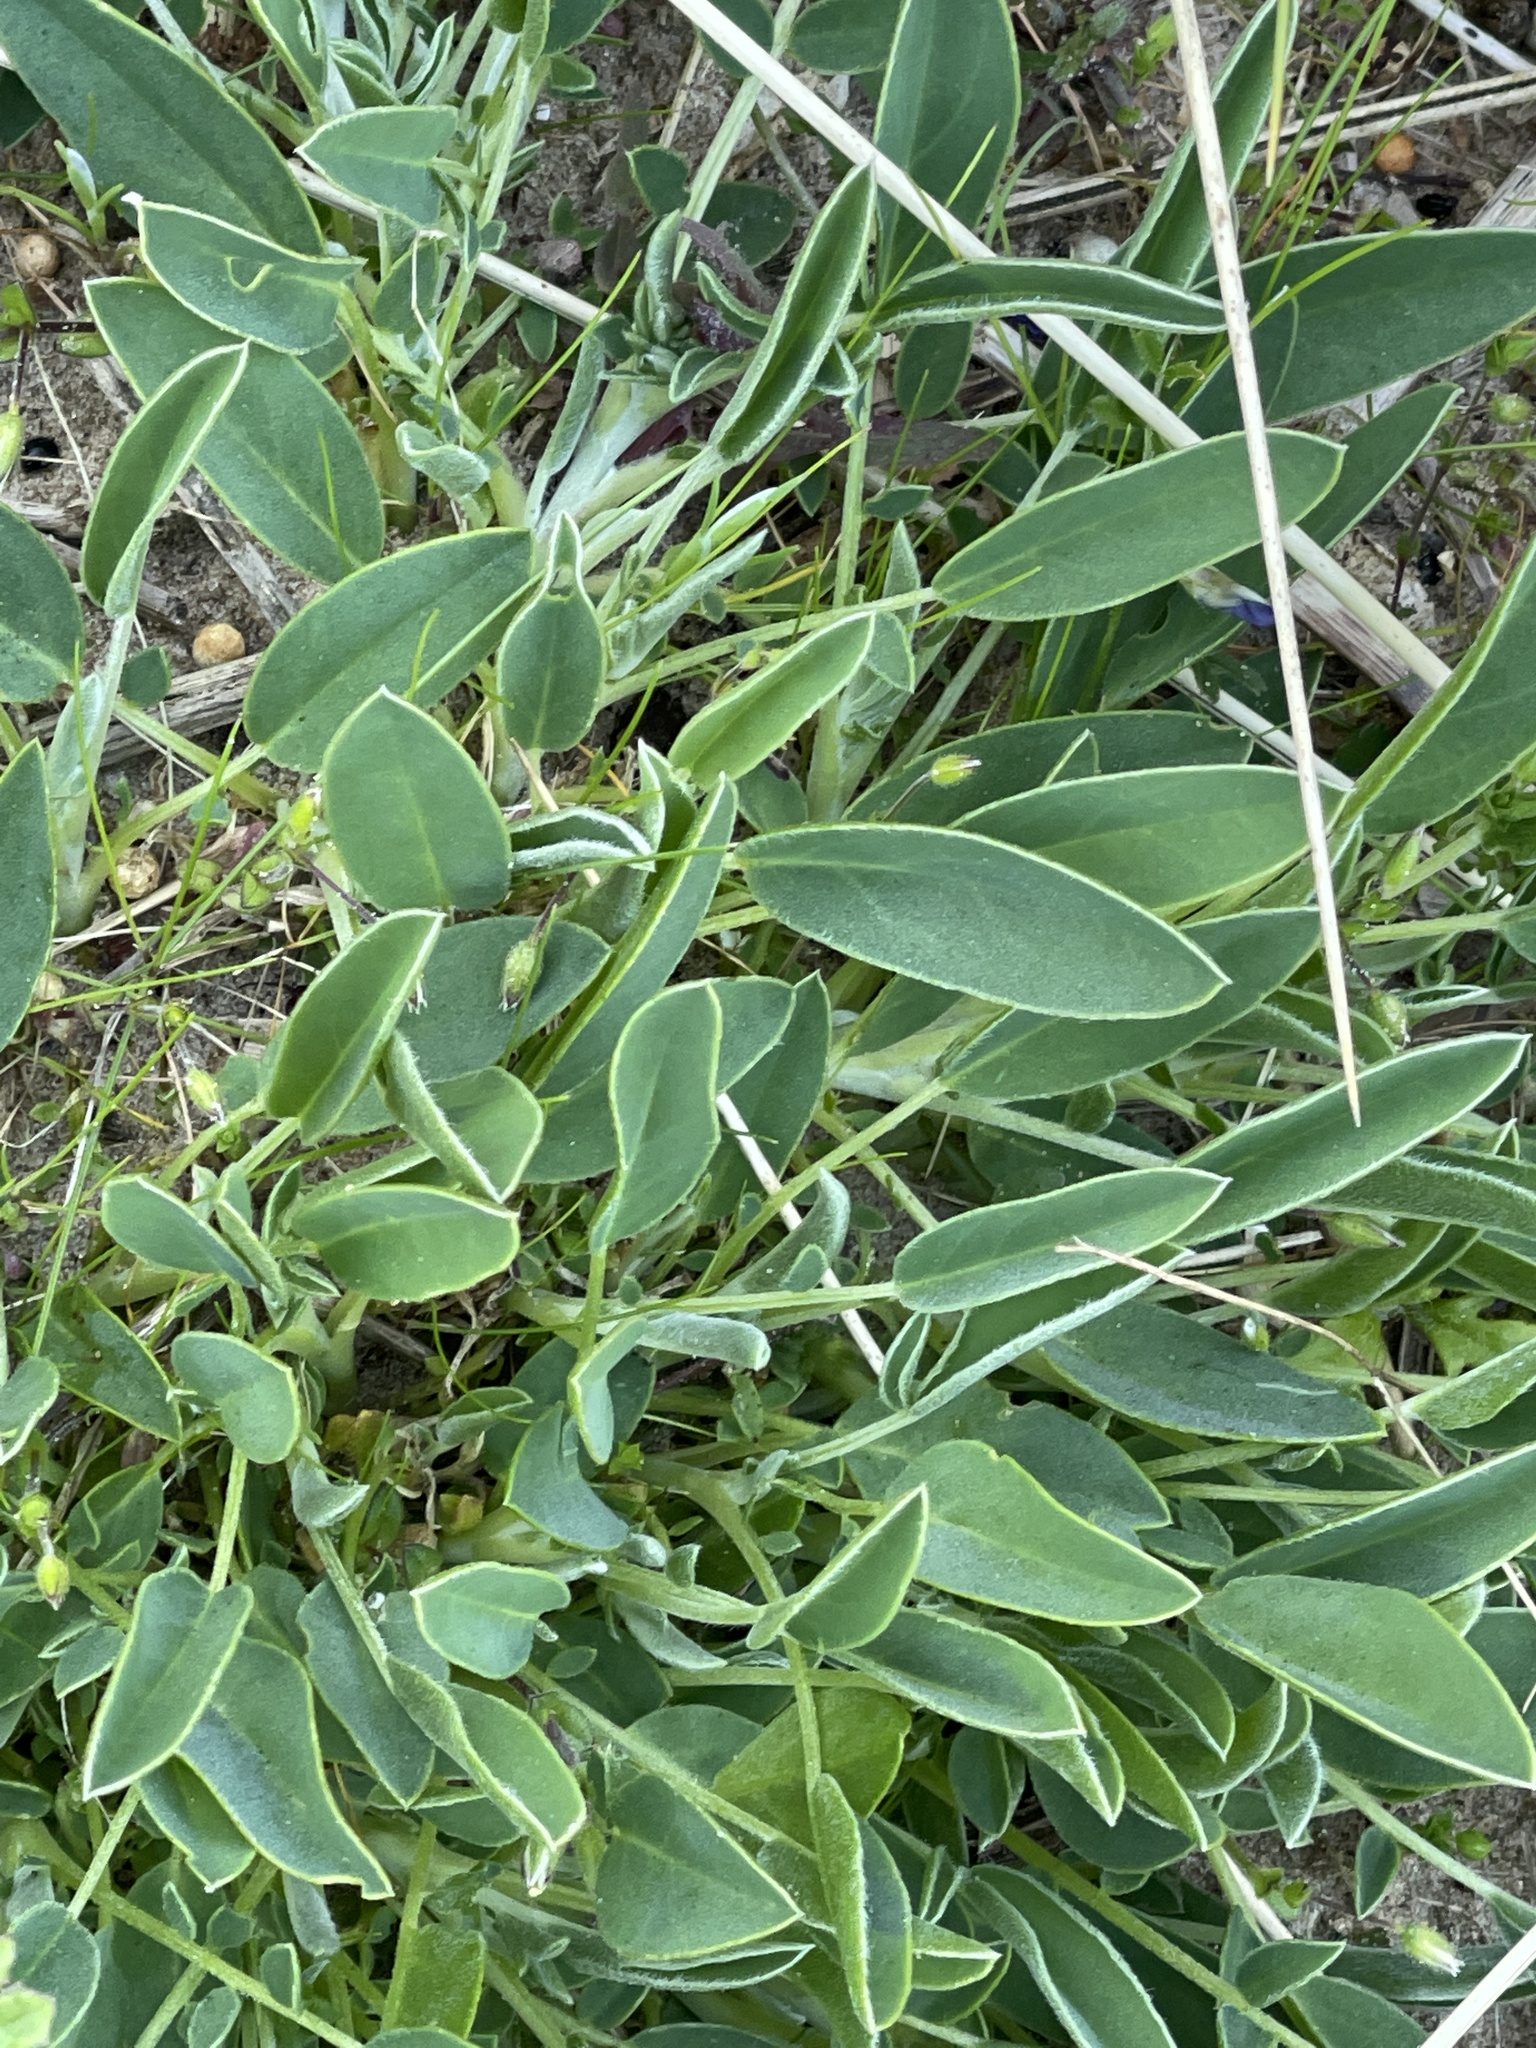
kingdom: Plantae
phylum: Tracheophyta
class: Magnoliopsida
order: Fabales
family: Fabaceae
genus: Anthyllis
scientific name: Anthyllis vulneraria
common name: Kidney vetch
